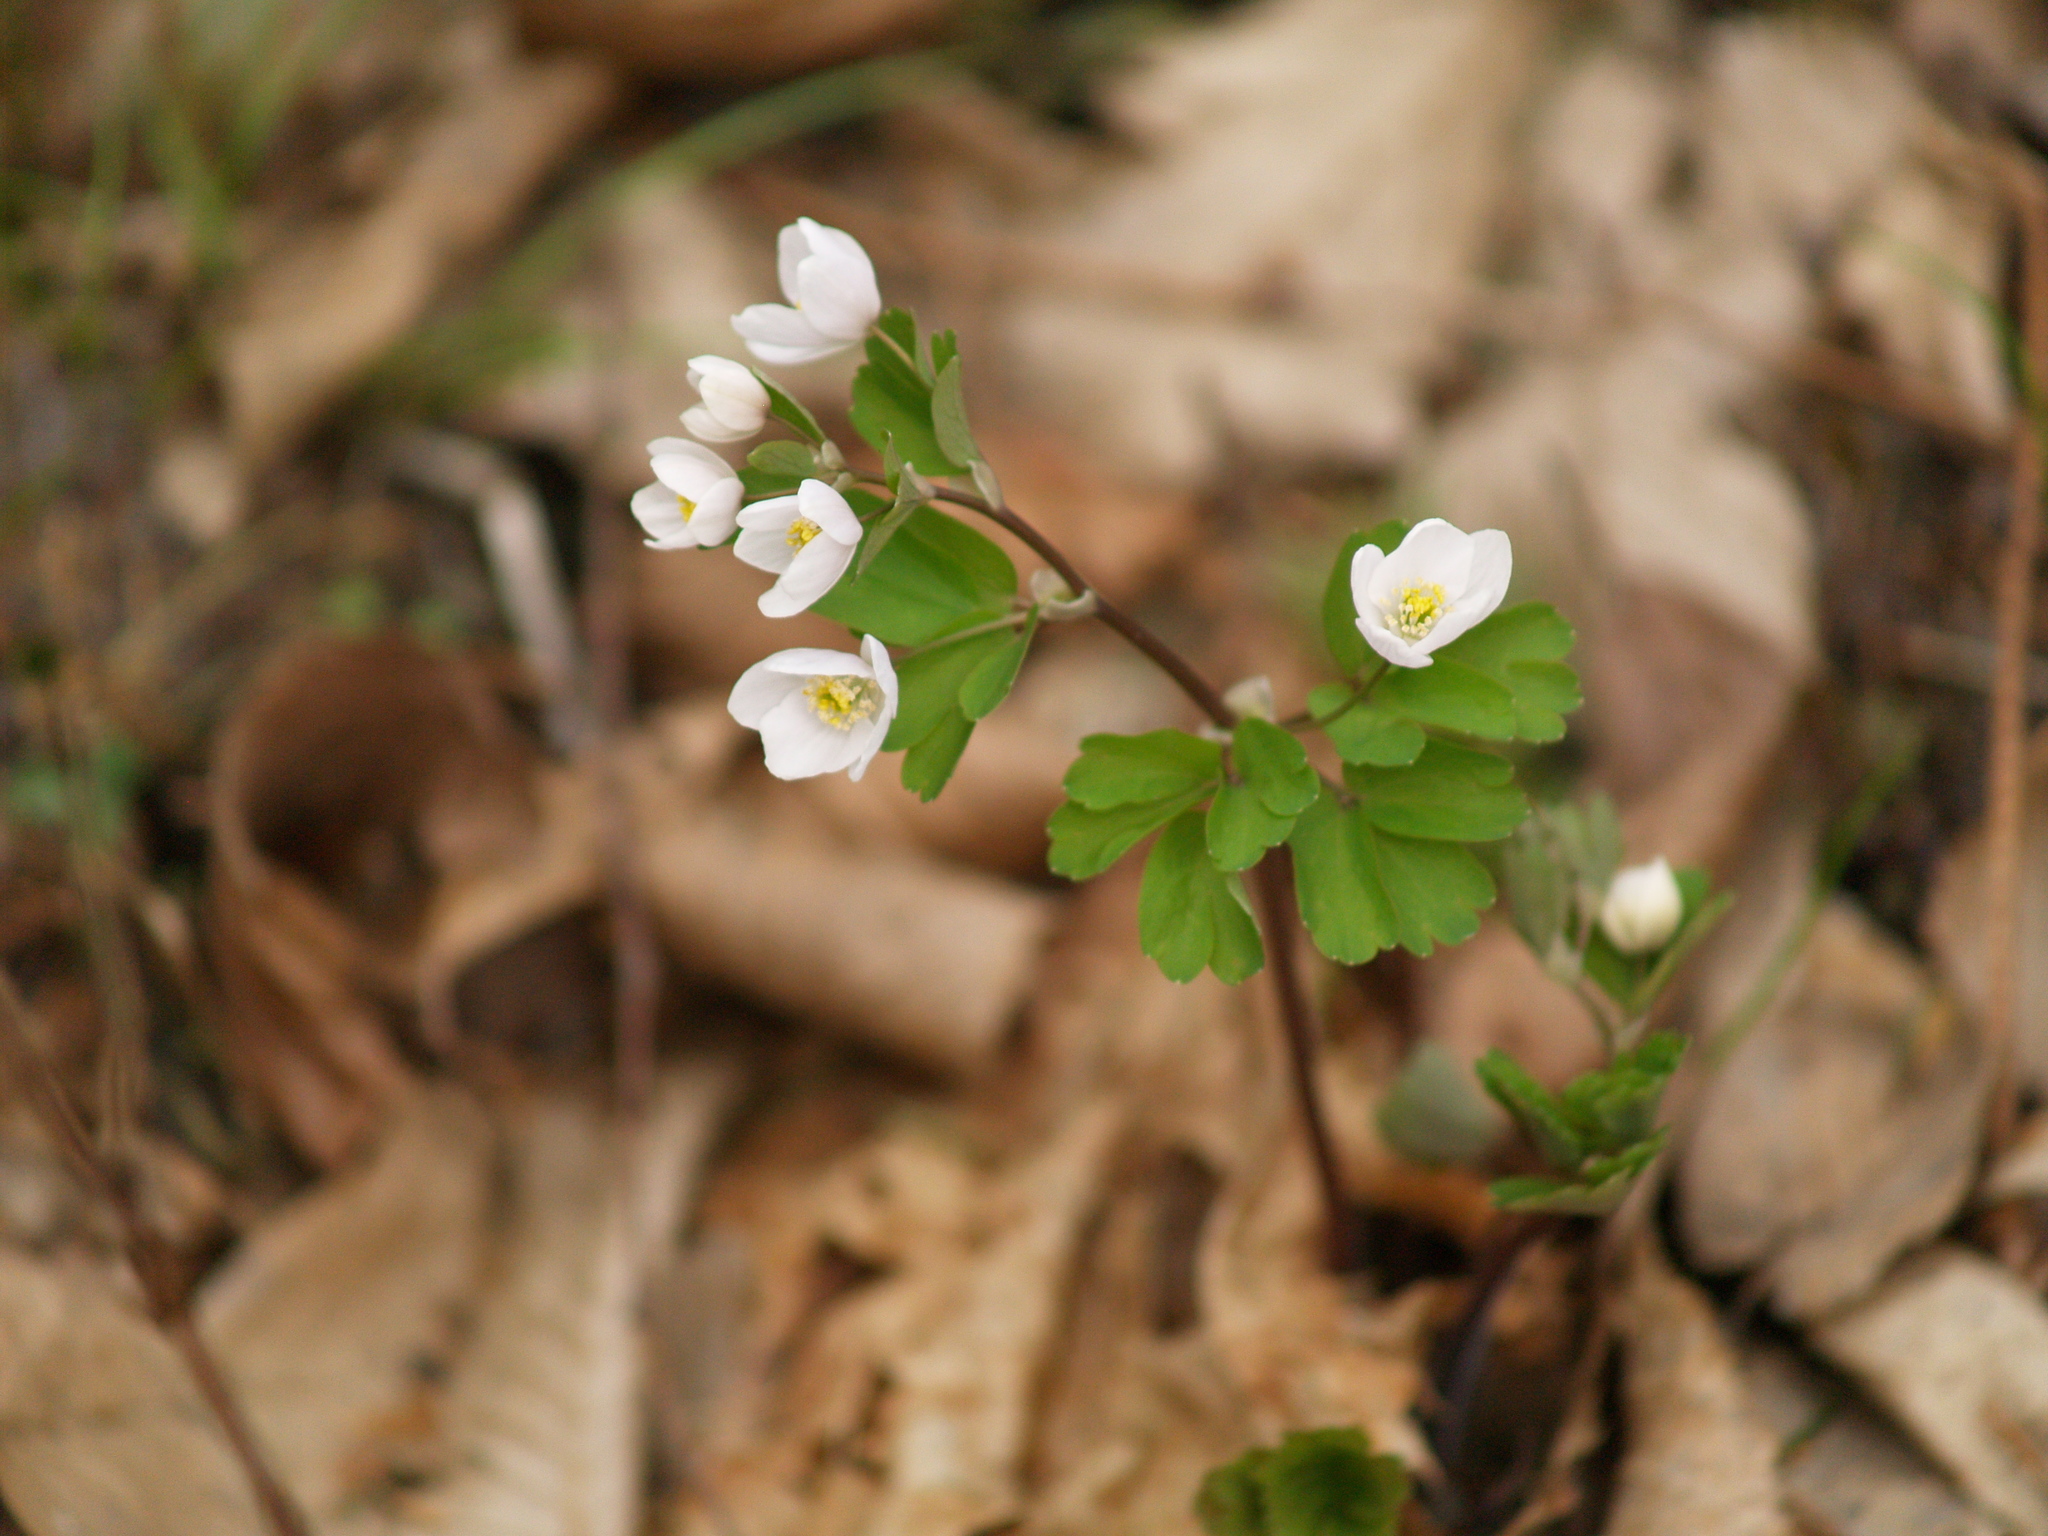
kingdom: Plantae
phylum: Tracheophyta
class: Magnoliopsida
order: Ranunculales
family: Ranunculaceae
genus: Isopyrum
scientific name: Isopyrum thalictroides
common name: Isopyrum
